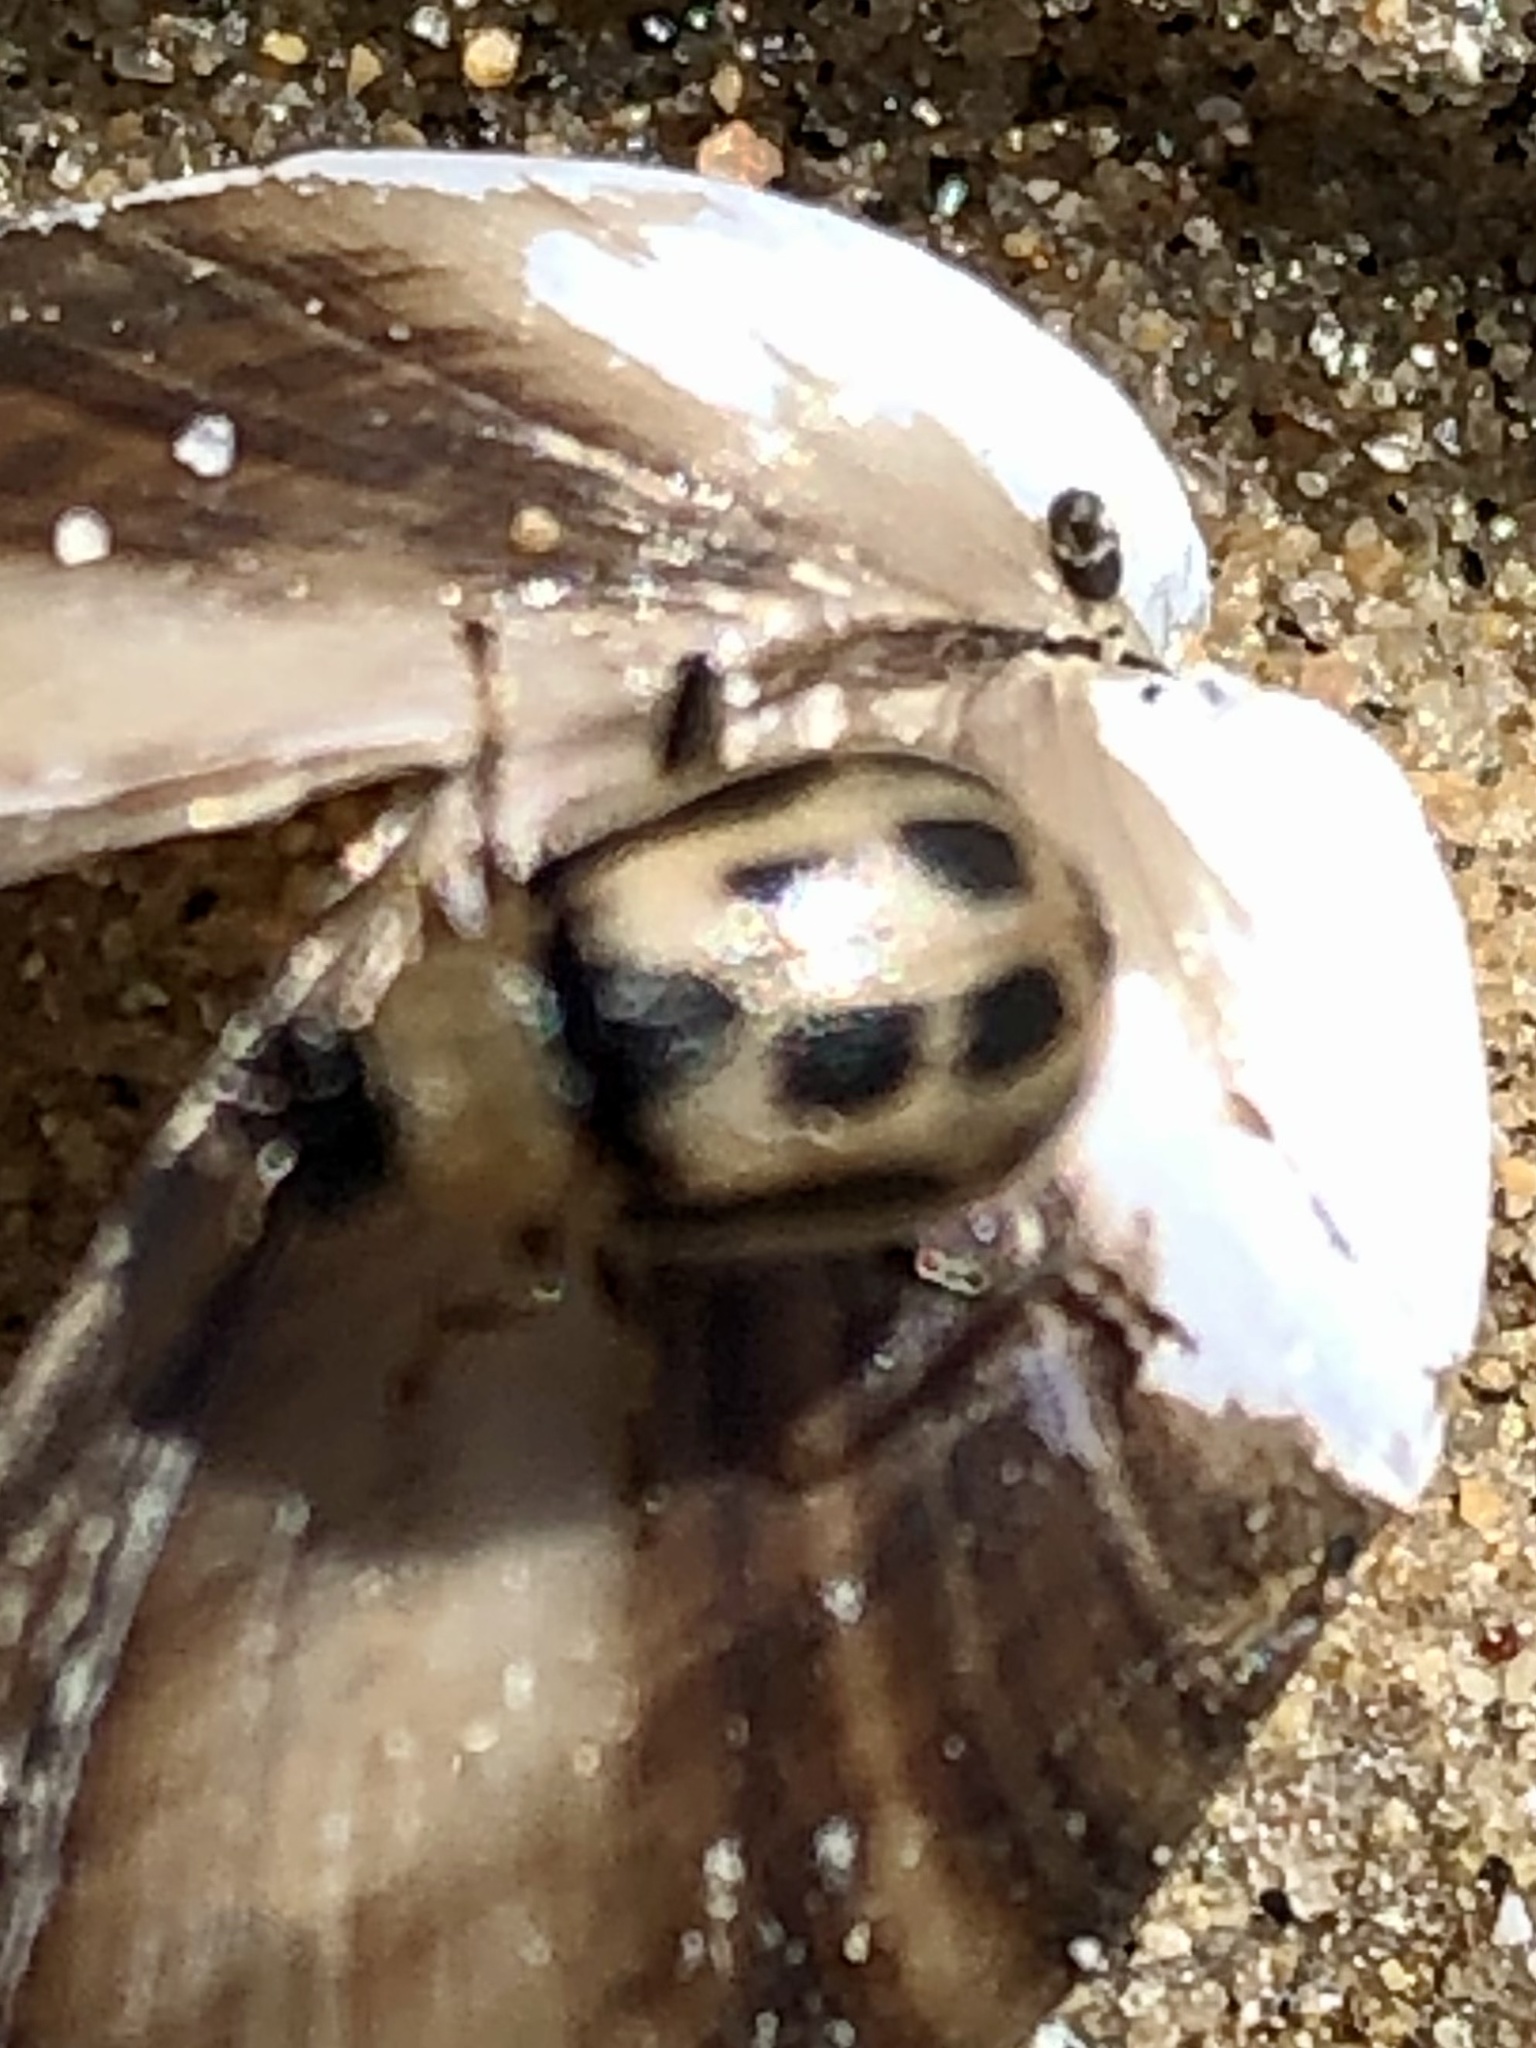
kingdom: Animalia
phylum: Arthropoda
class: Insecta
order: Coleoptera
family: Chrysomelidae
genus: Cerotoma
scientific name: Cerotoma trifurcata
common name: Bean leaf beetle
